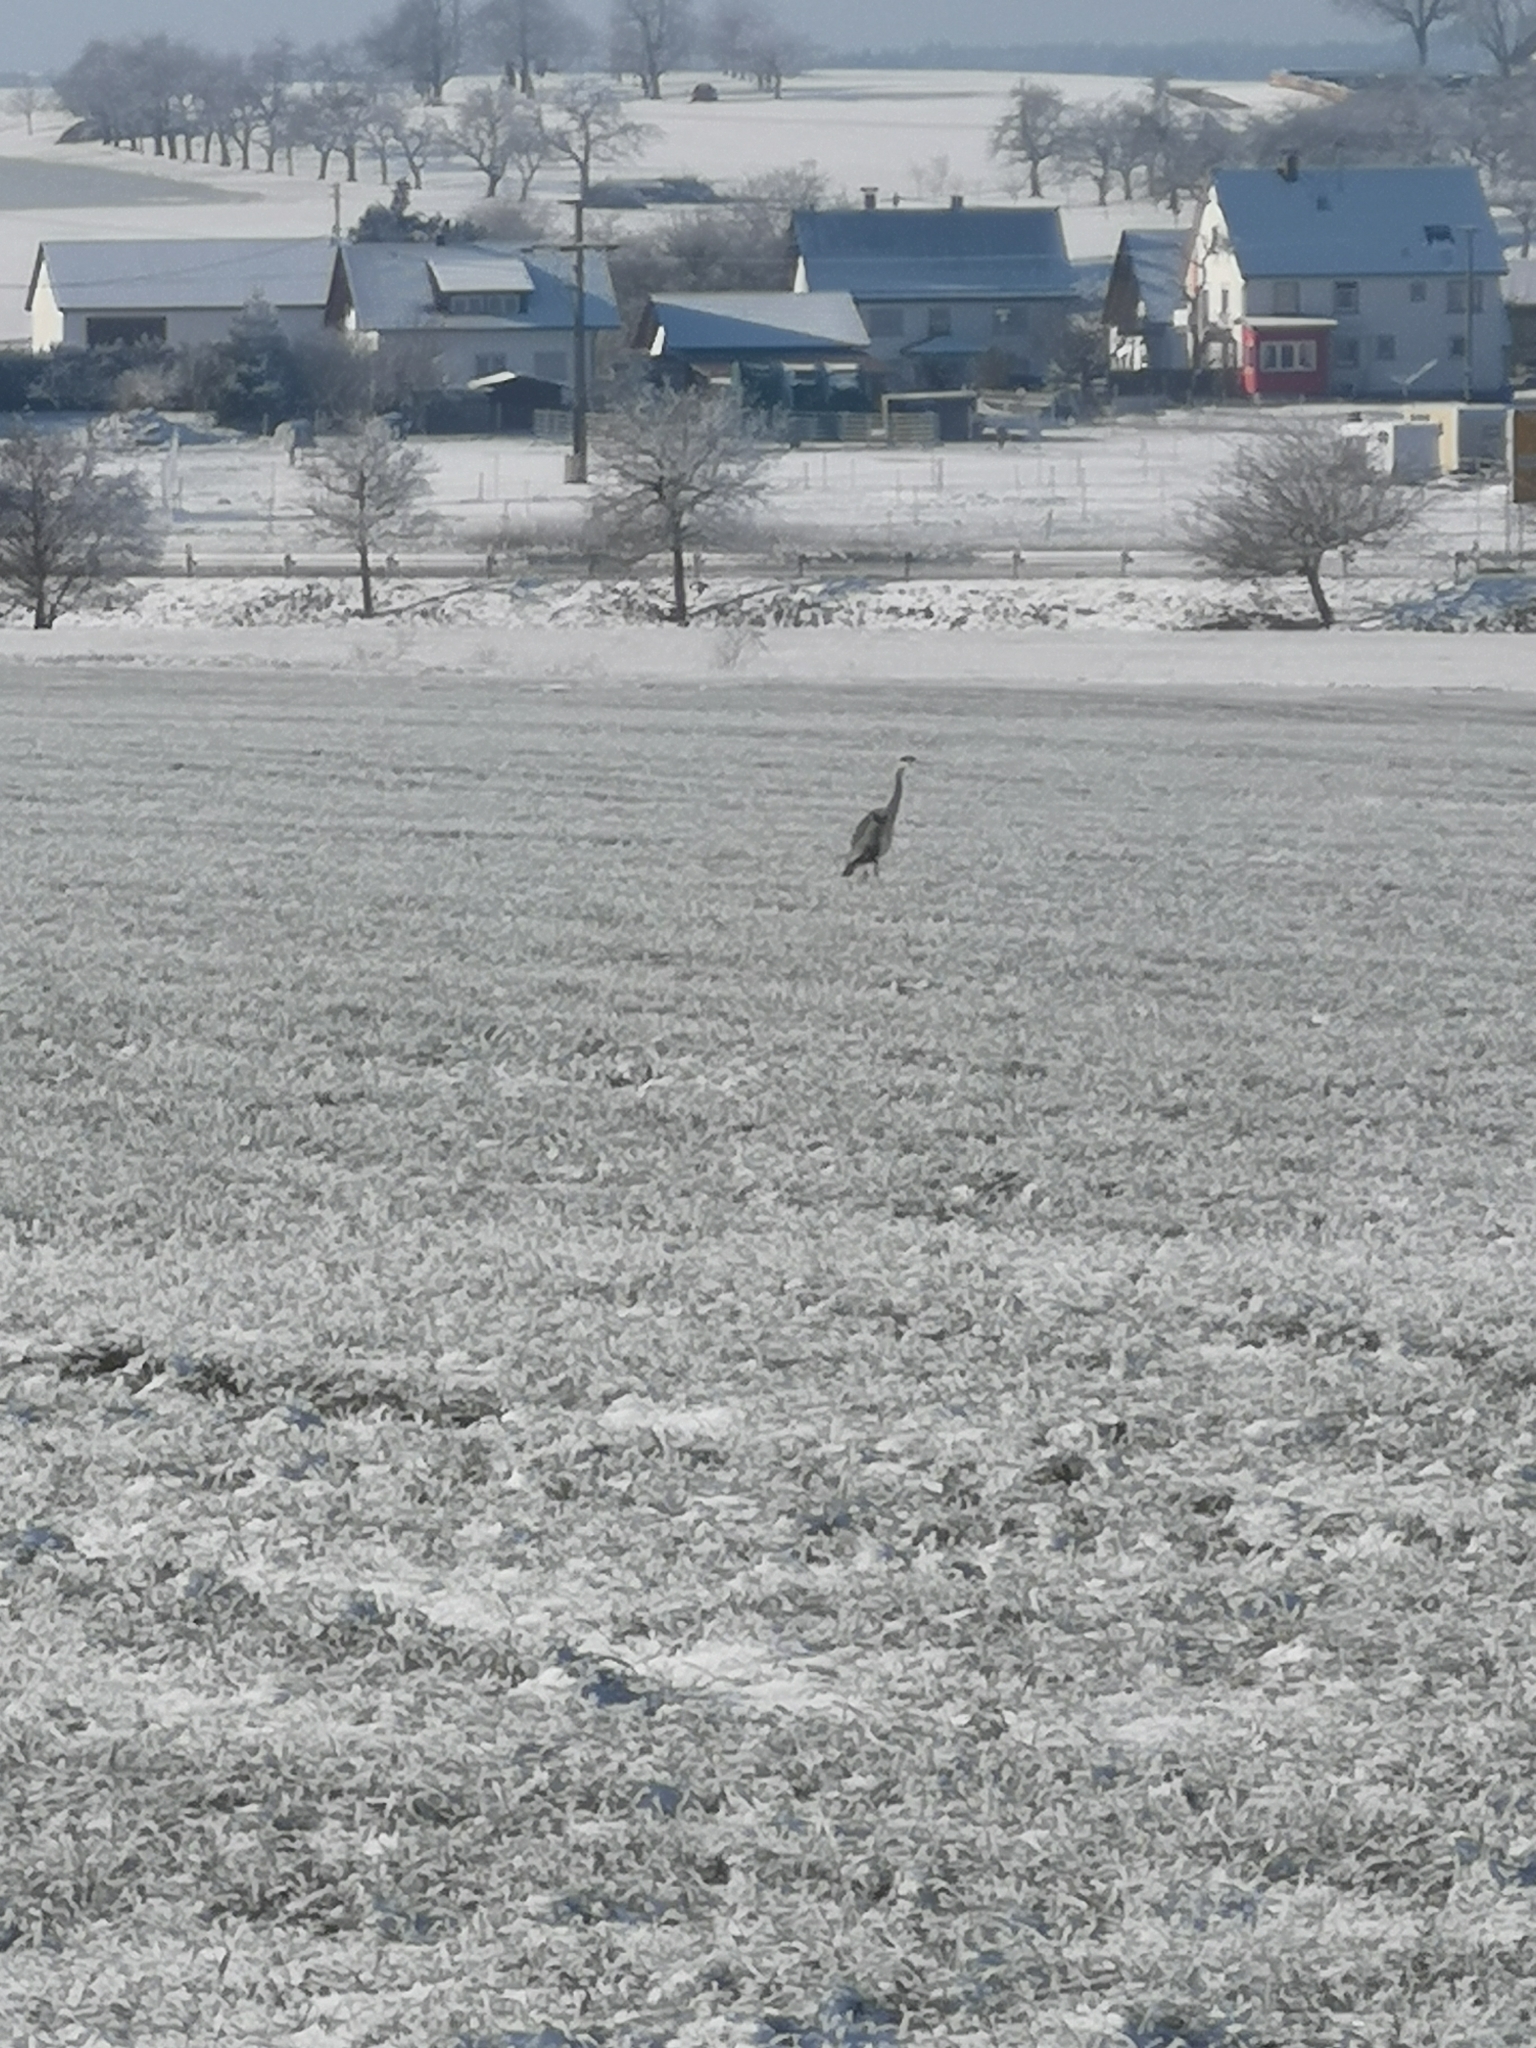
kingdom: Animalia
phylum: Chordata
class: Aves
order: Pelecaniformes
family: Ardeidae
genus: Ardea
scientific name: Ardea cinerea
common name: Grey heron
